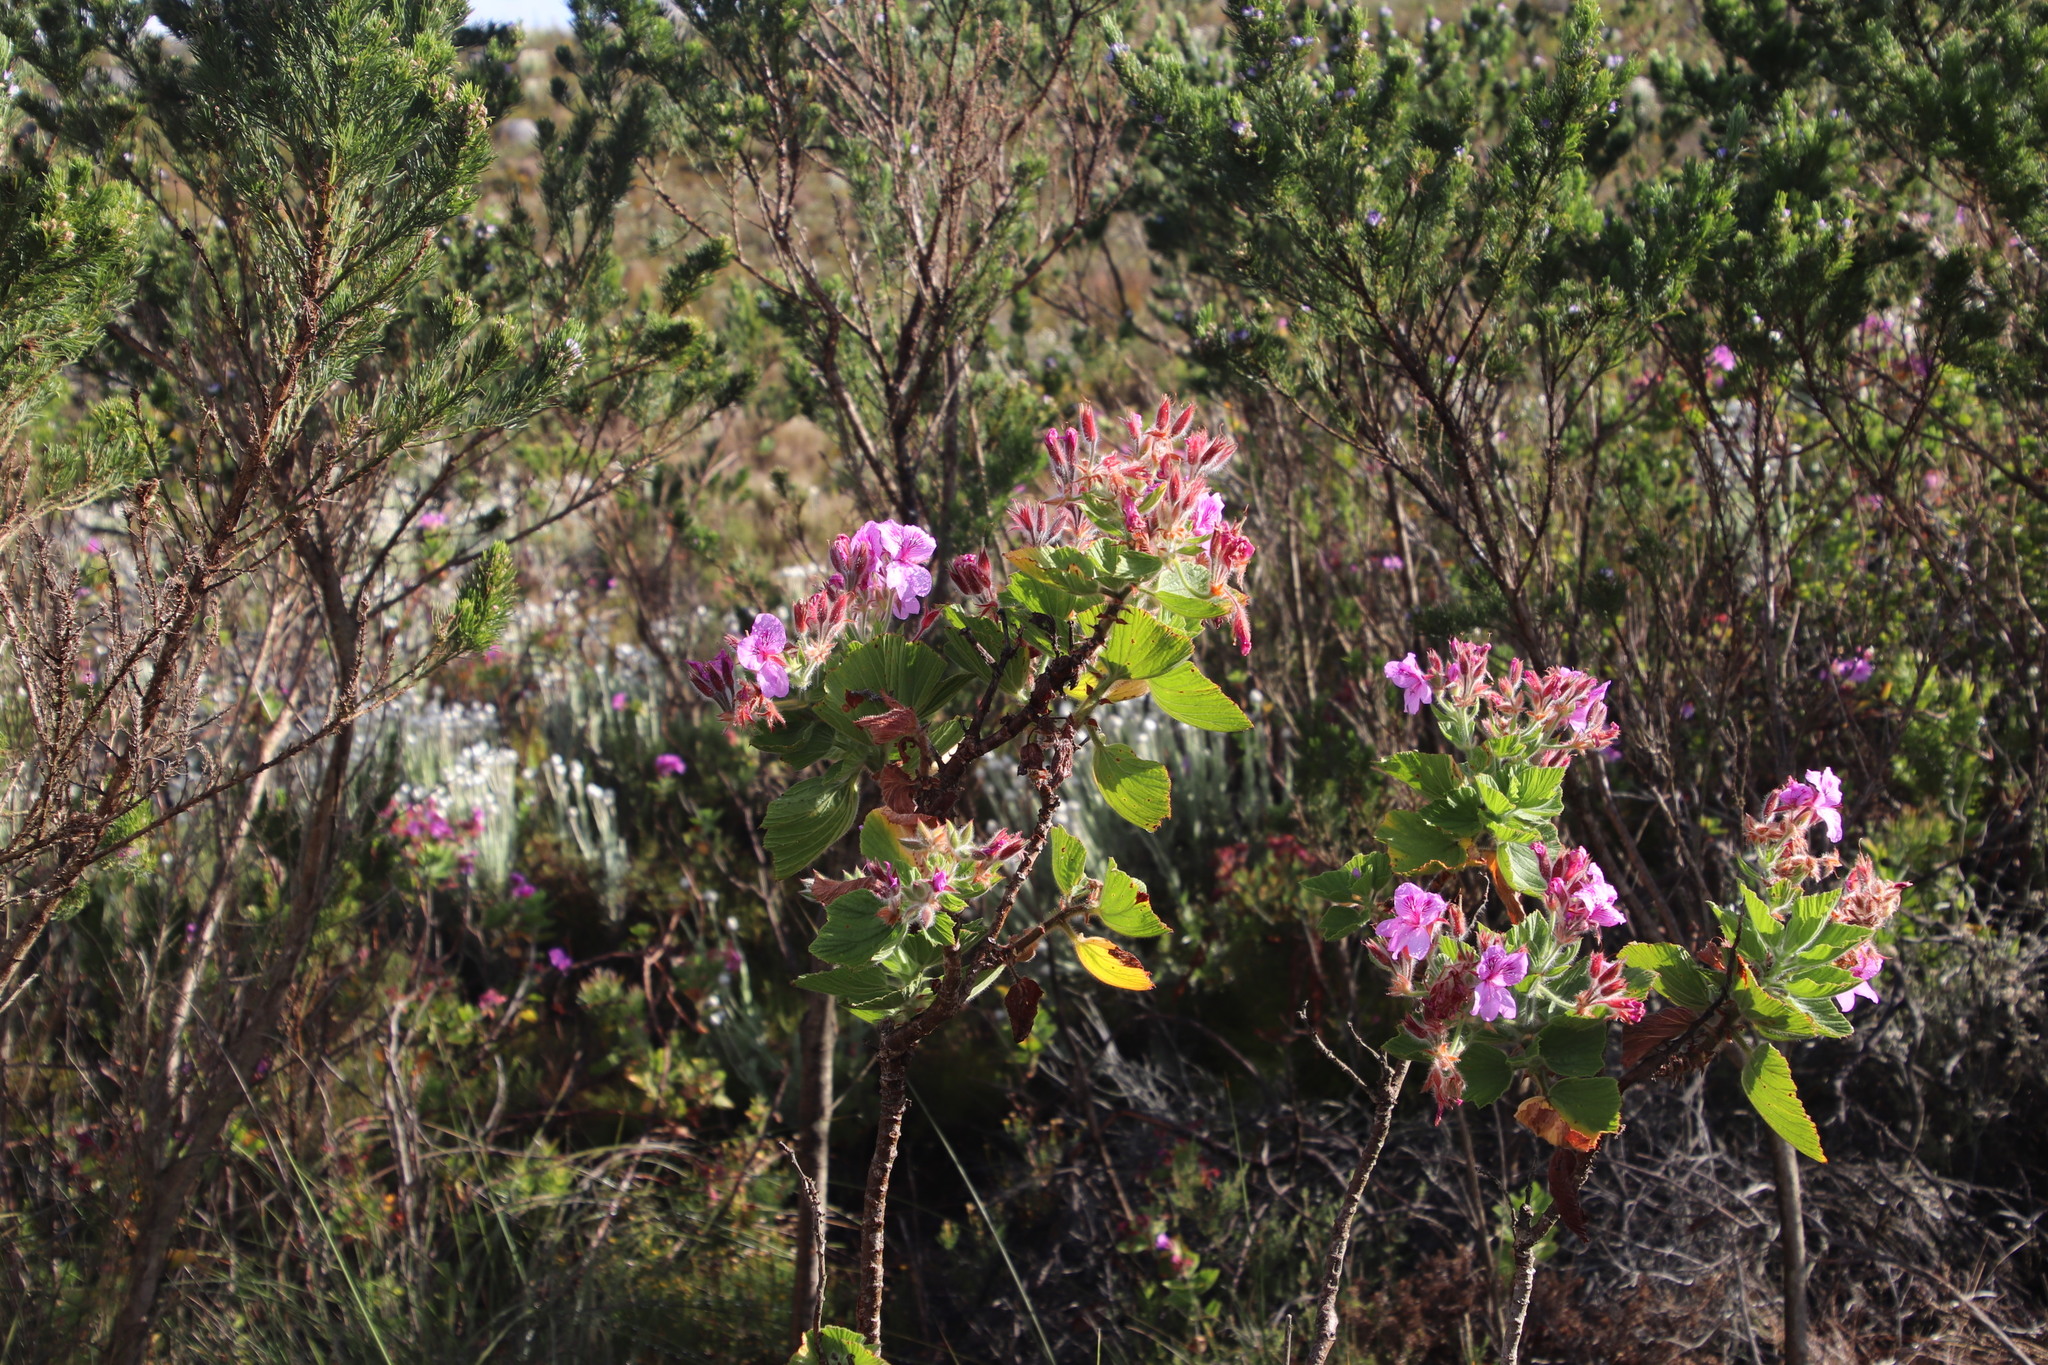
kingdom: Plantae
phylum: Tracheophyta
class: Magnoliopsida
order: Geraniales
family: Geraniaceae
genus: Pelargonium
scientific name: Pelargonium cucullatum
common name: Tree pelargonium
